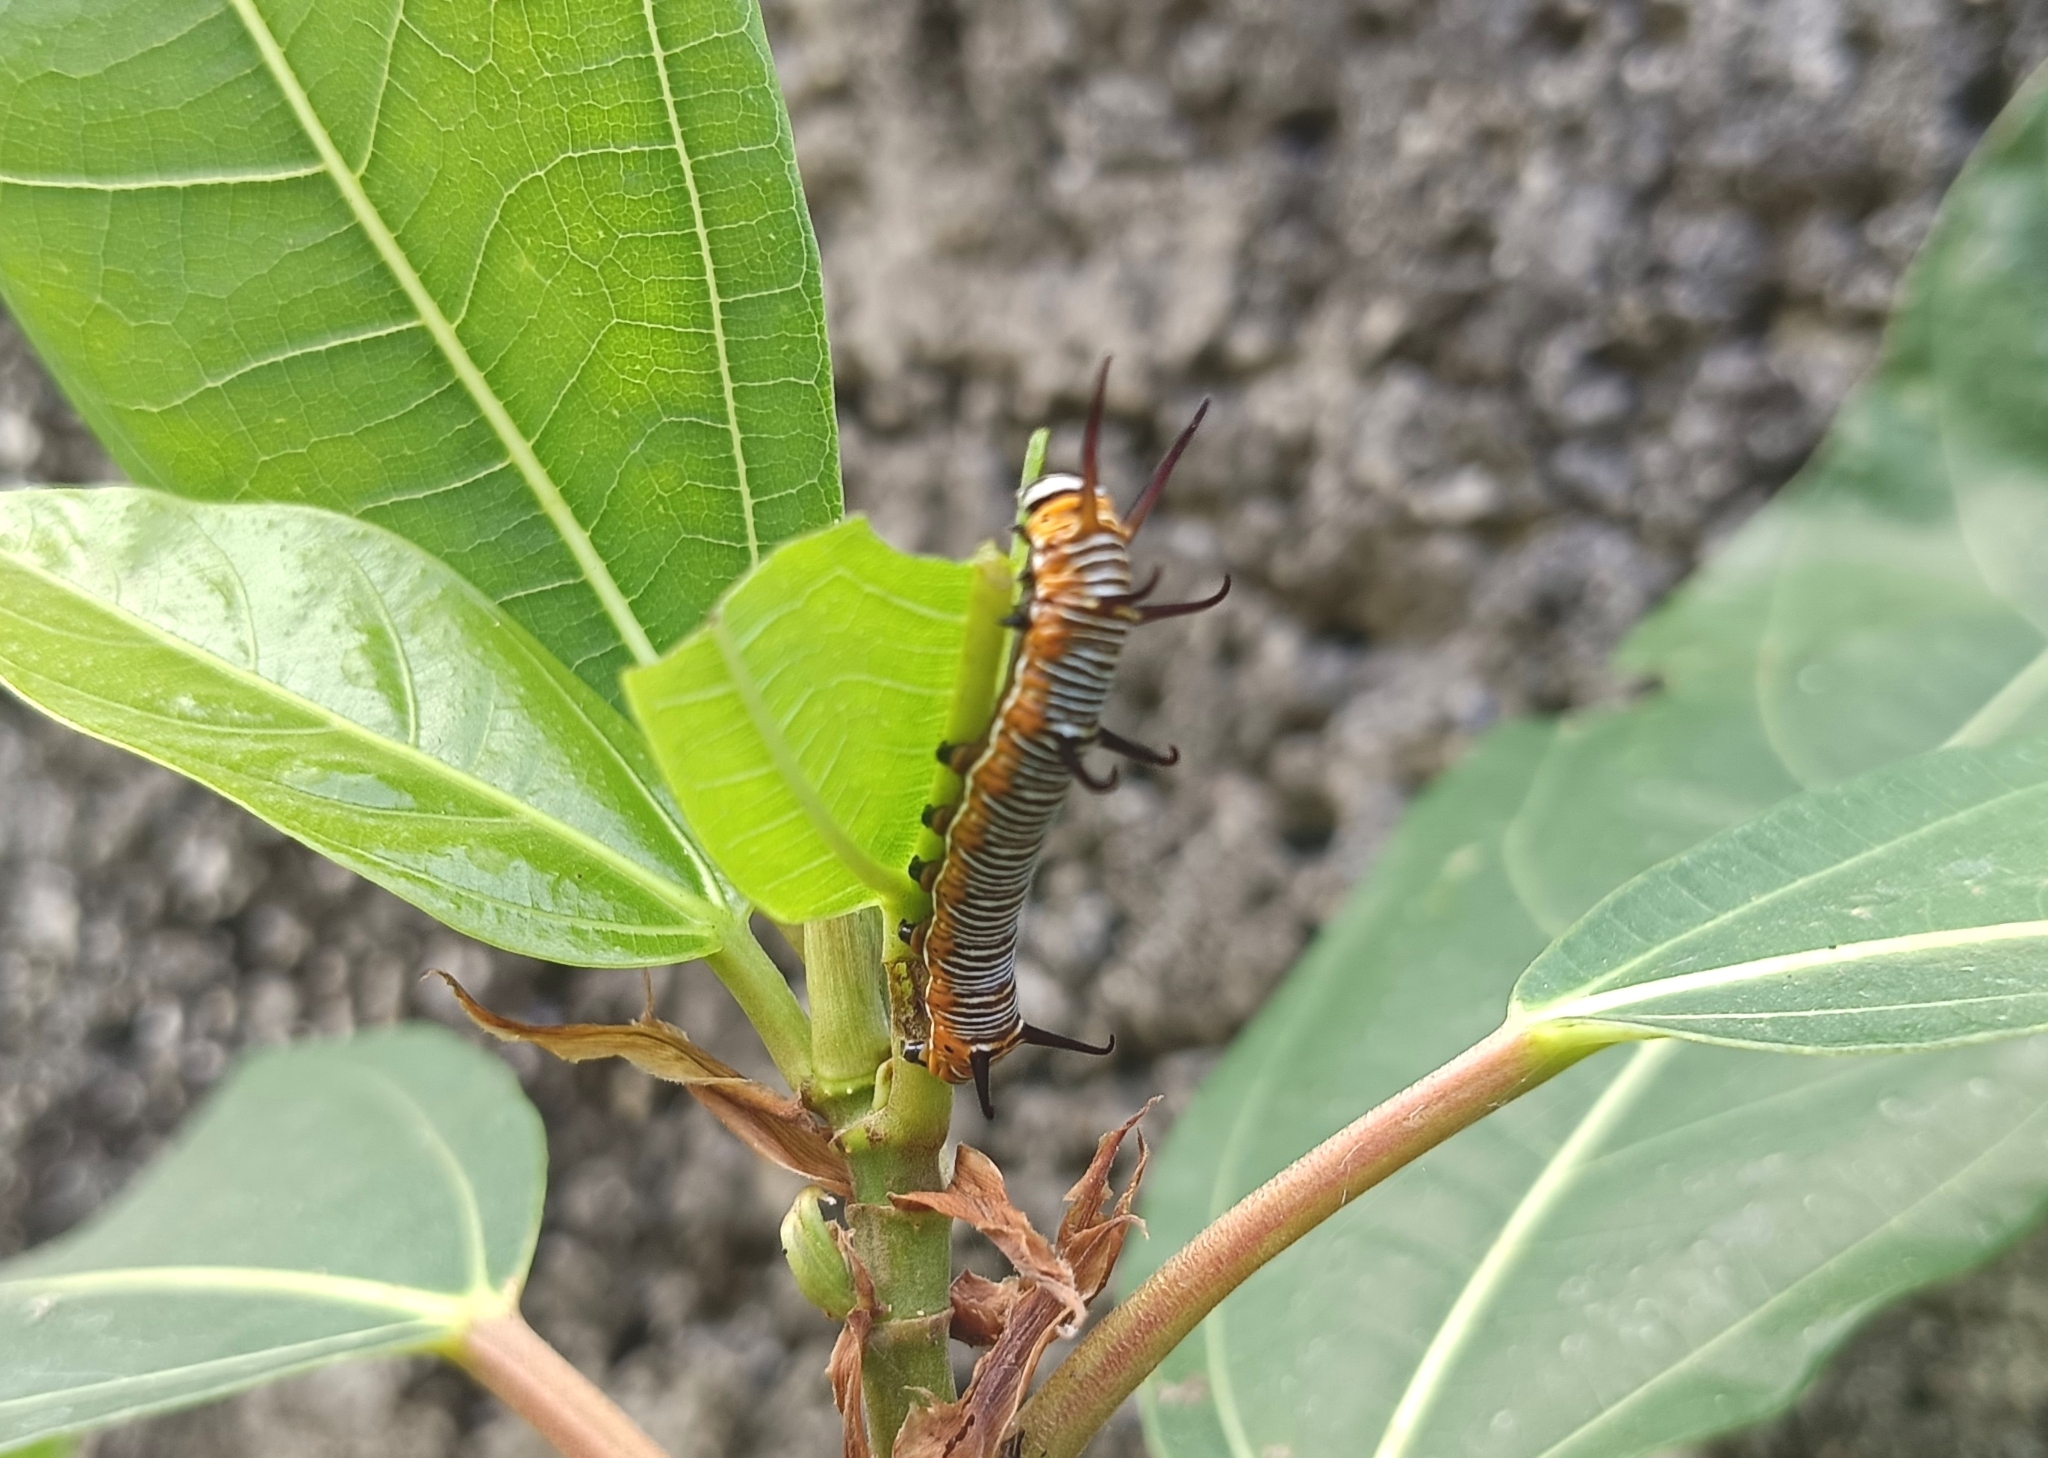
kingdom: Animalia
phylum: Arthropoda
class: Insecta
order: Lepidoptera
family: Nymphalidae
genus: Euploea
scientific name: Euploea core
